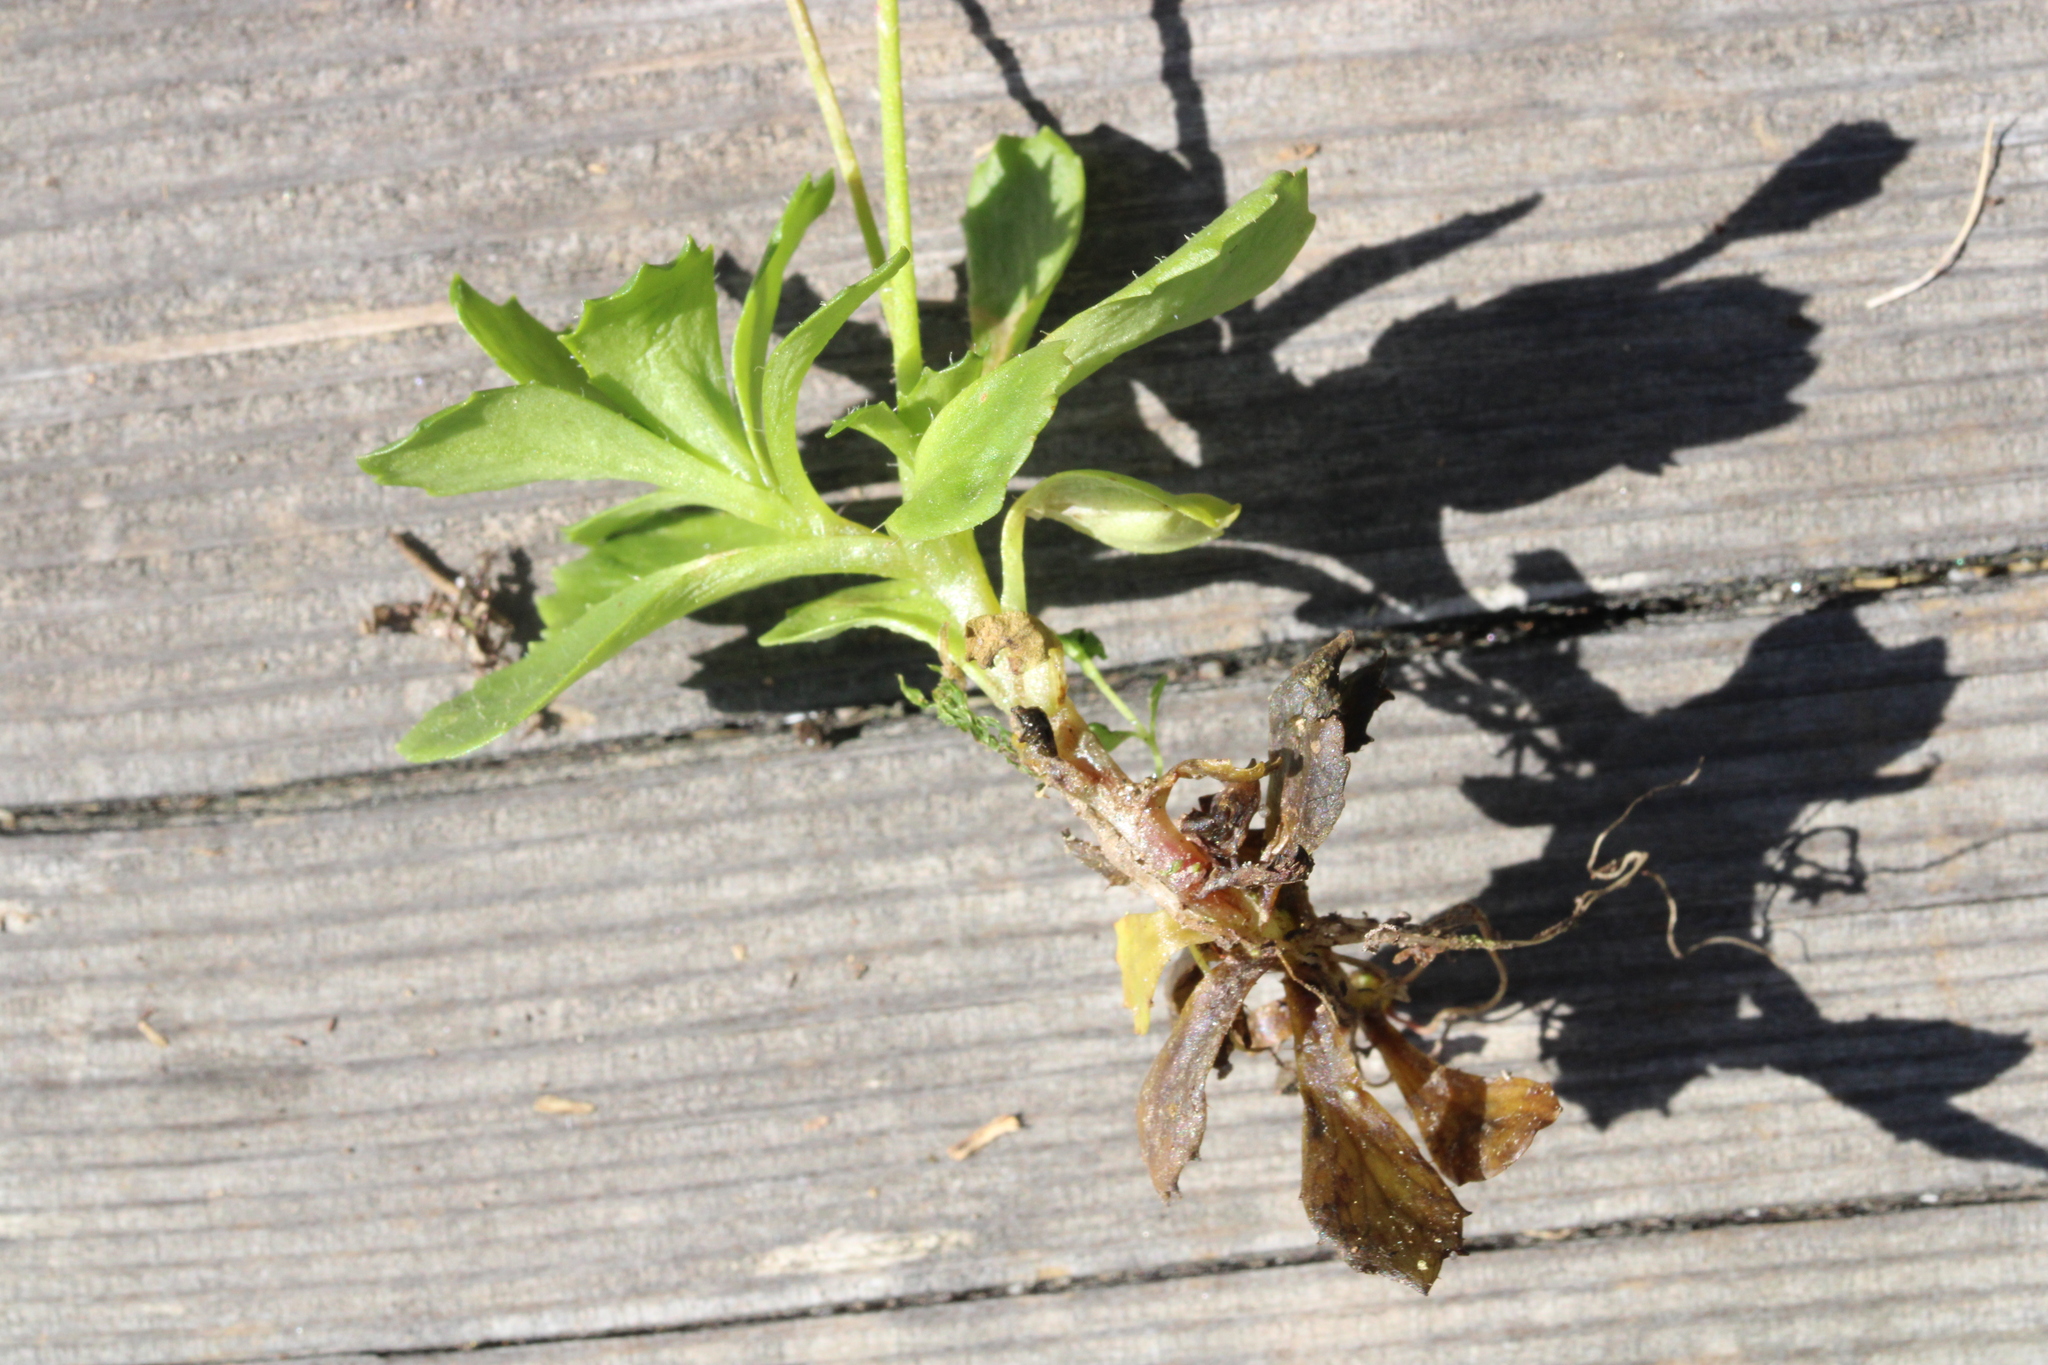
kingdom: Plantae
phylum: Tracheophyta
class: Magnoliopsida
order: Saxifragales
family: Saxifragaceae
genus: Micranthes
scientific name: Micranthes stellaris
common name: Starry saxifrage
